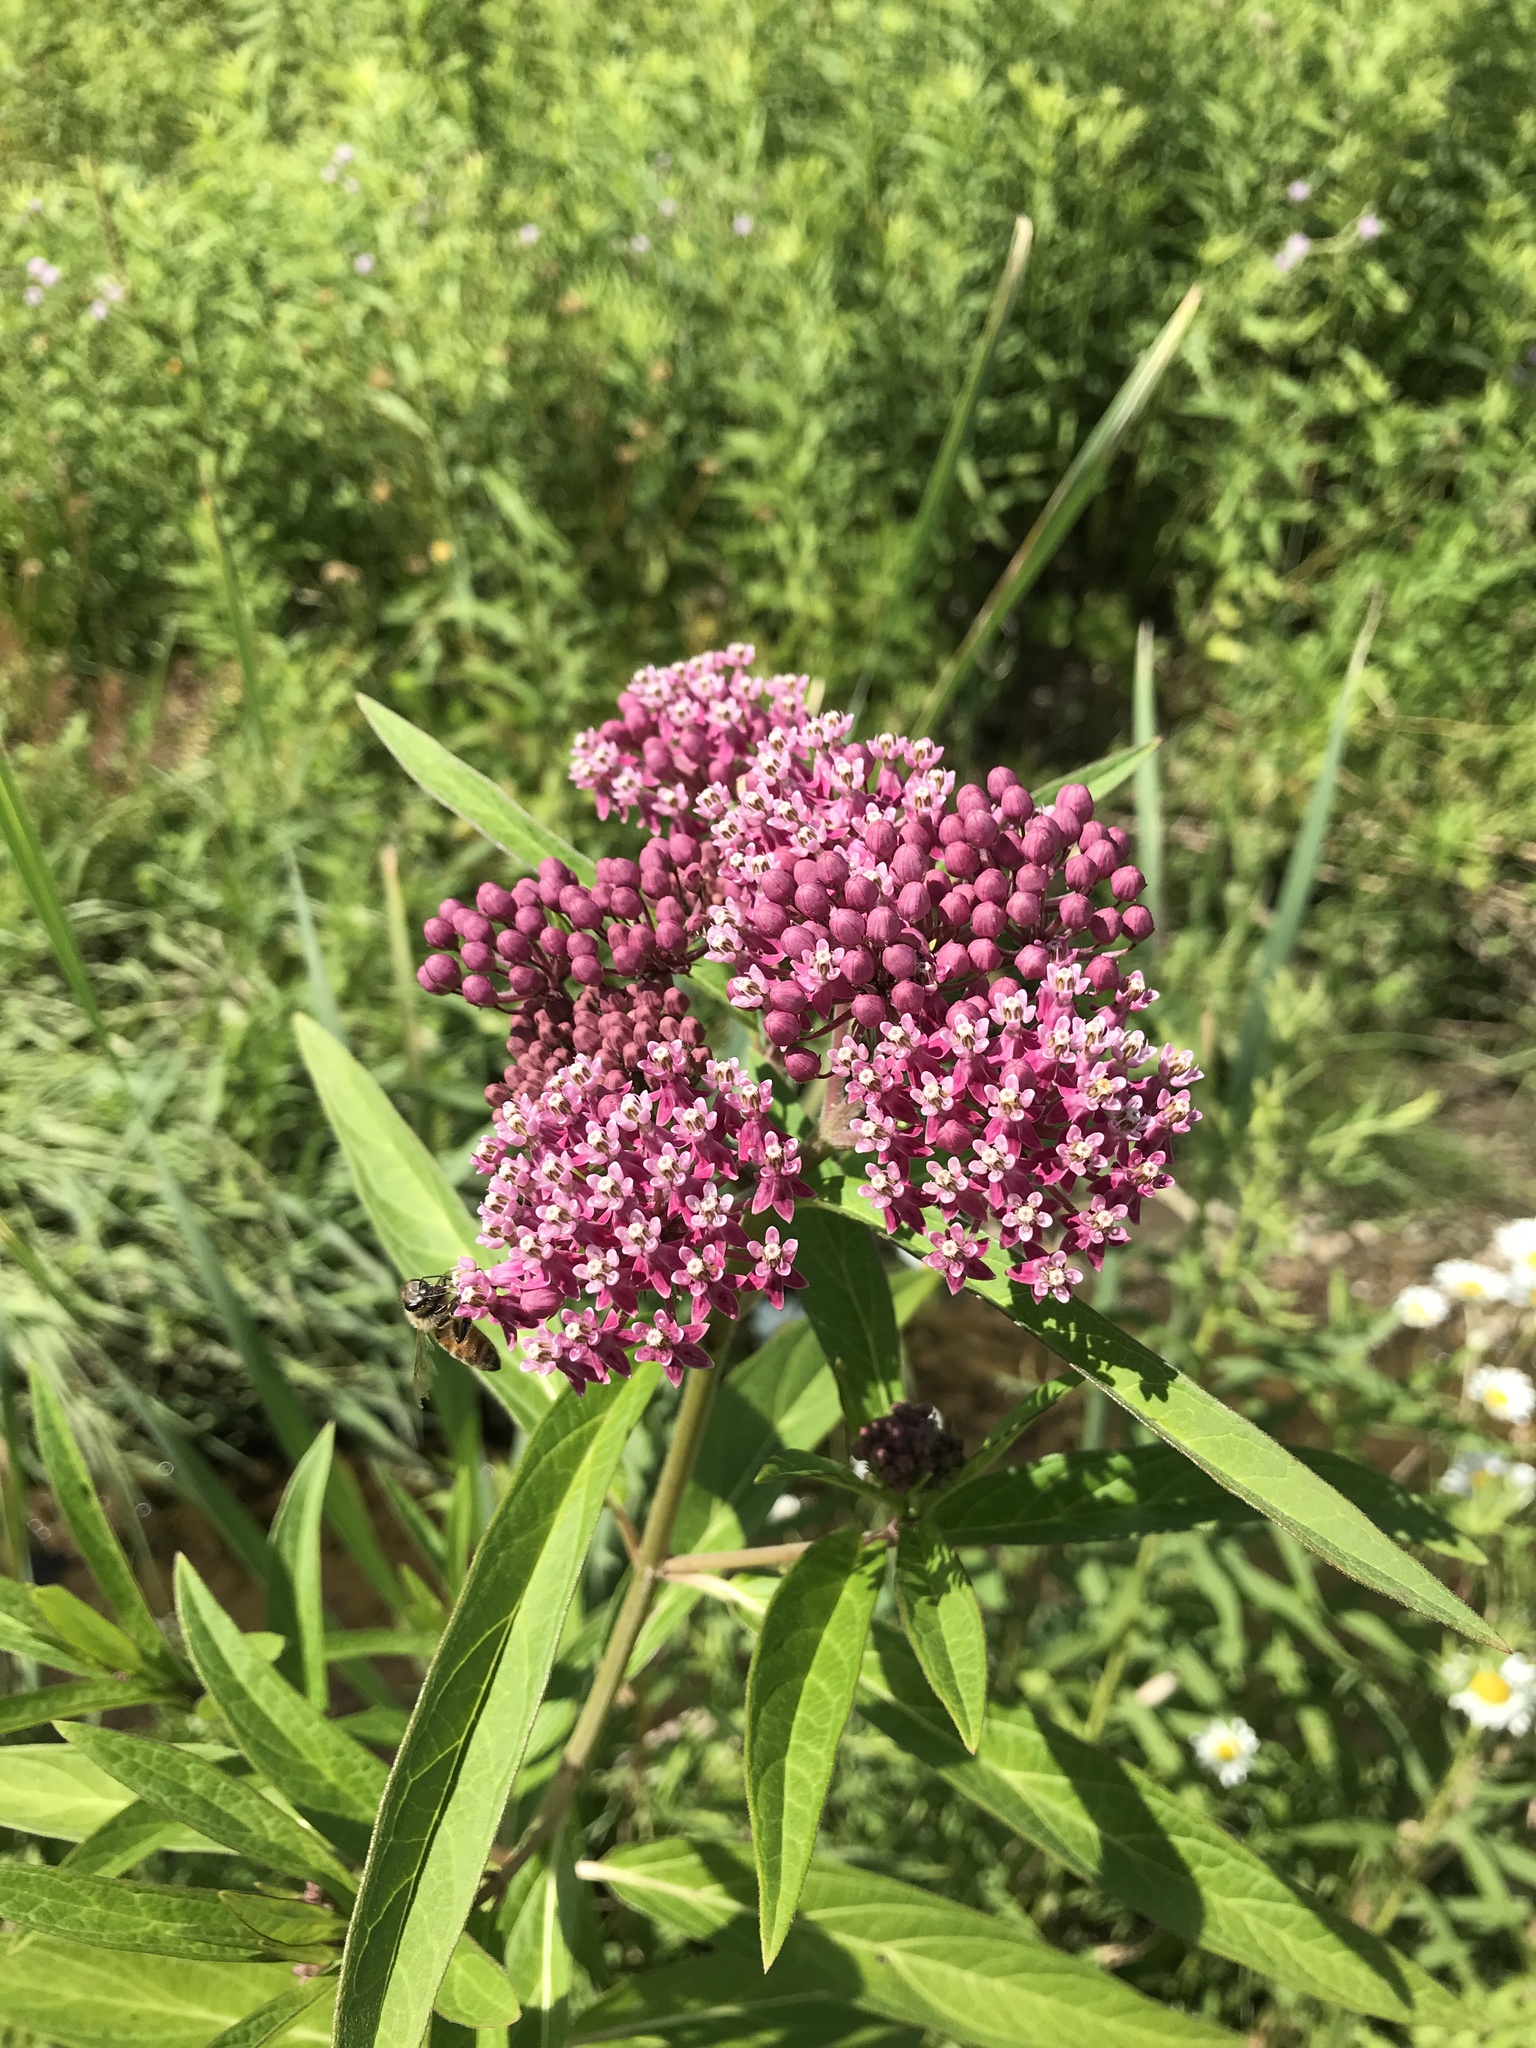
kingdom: Plantae
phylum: Tracheophyta
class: Magnoliopsida
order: Gentianales
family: Apocynaceae
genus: Asclepias
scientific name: Asclepias incarnata
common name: Swamp milkweed
